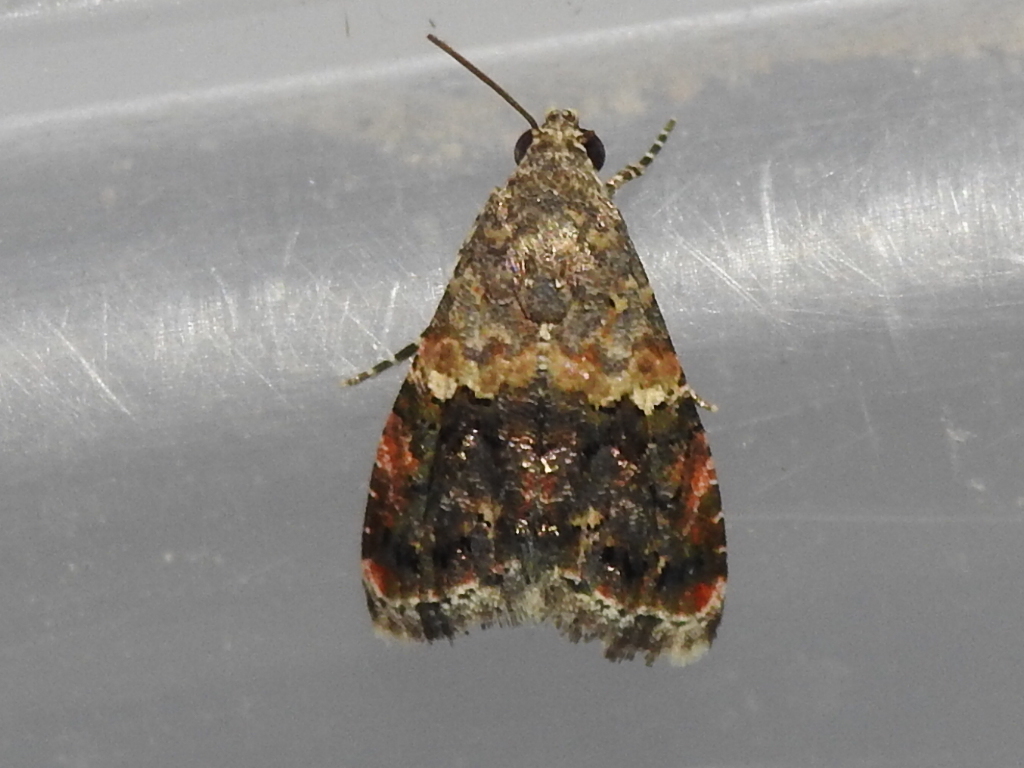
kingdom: Animalia
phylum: Arthropoda
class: Insecta
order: Lepidoptera
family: Noctuidae
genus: Tripudia
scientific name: Tripudia luxuriosa
